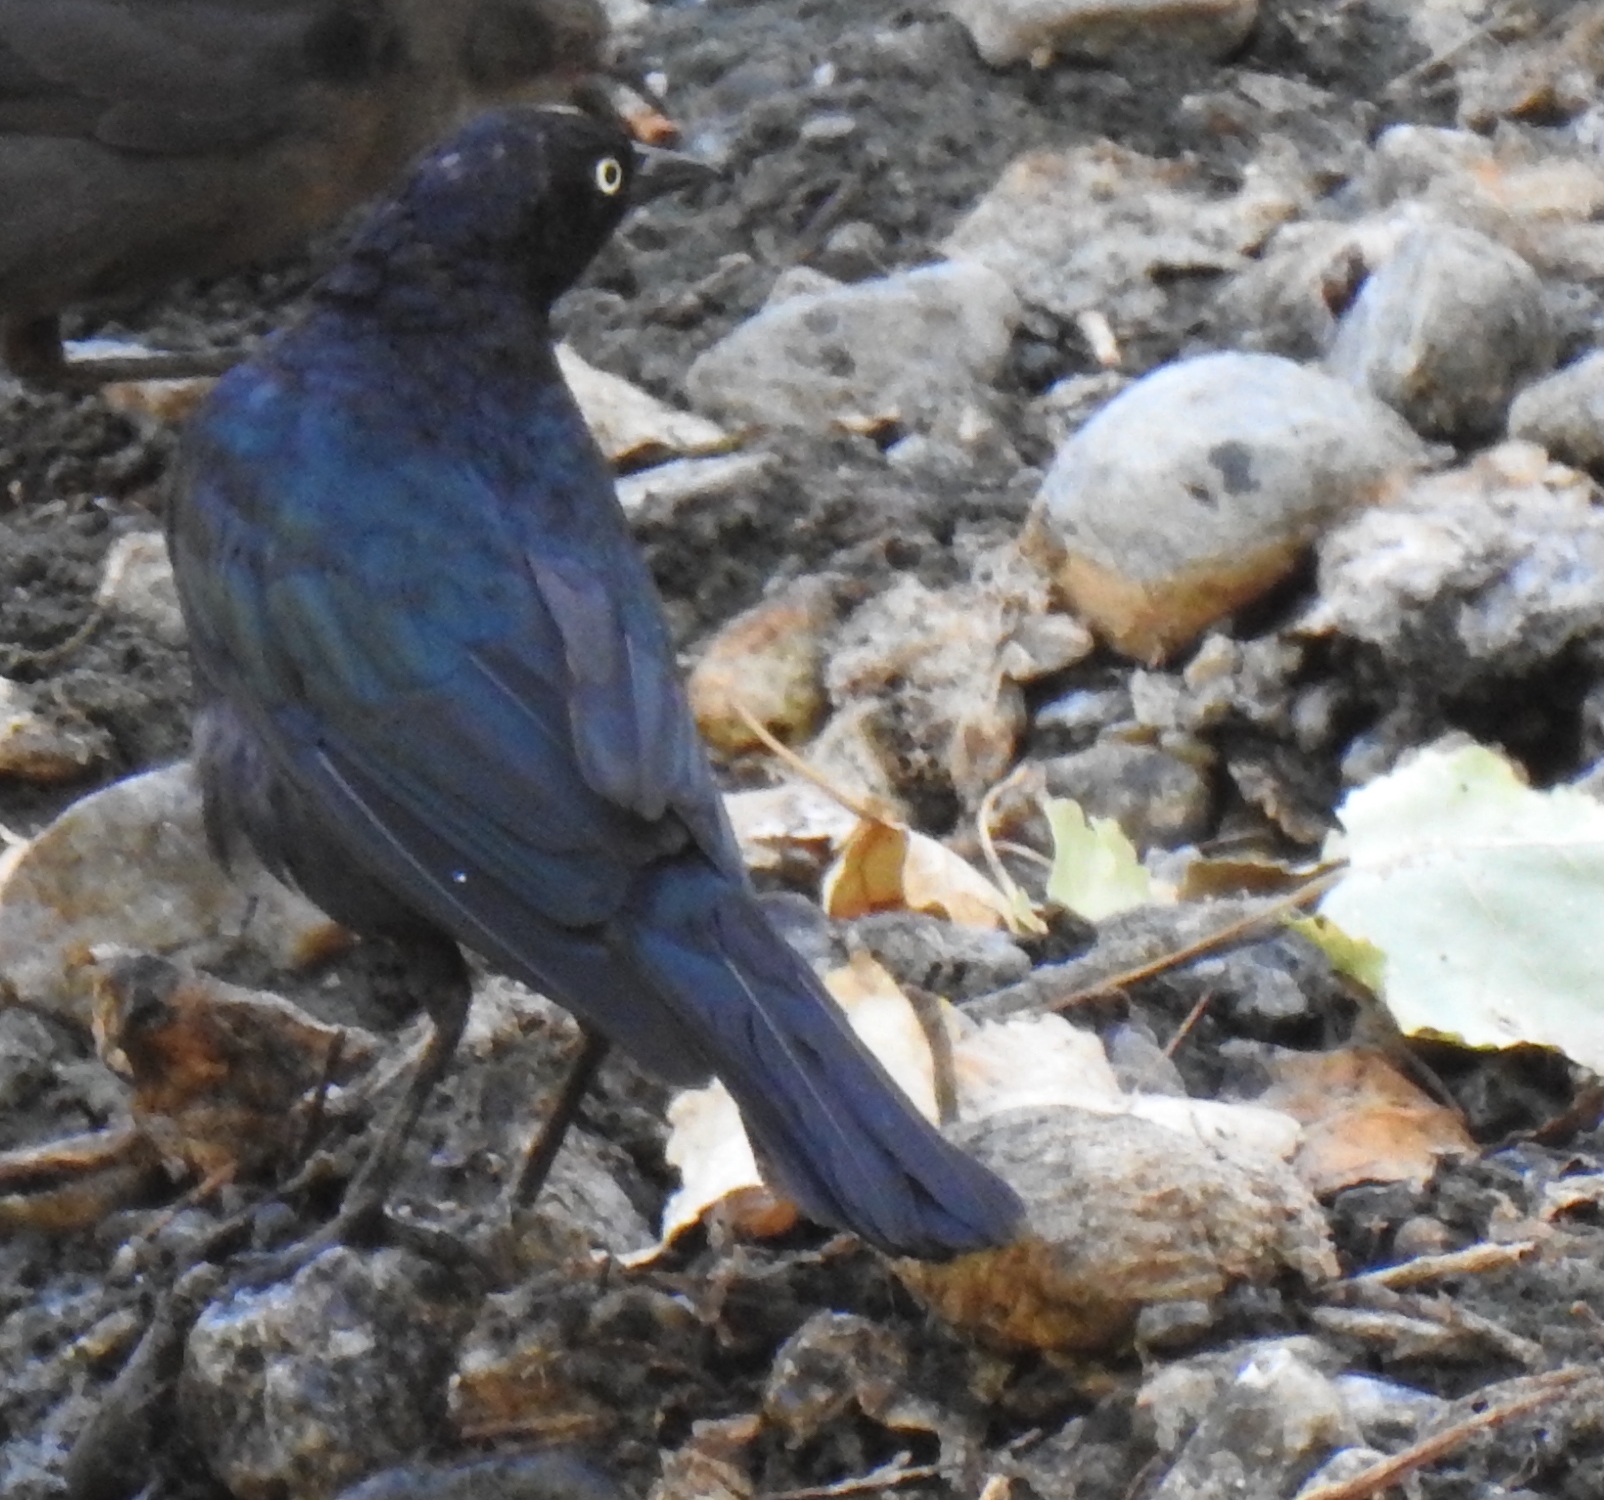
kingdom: Animalia
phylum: Chordata
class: Aves
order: Passeriformes
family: Icteridae
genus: Euphagus
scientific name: Euphagus cyanocephalus
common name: Brewer's blackbird
